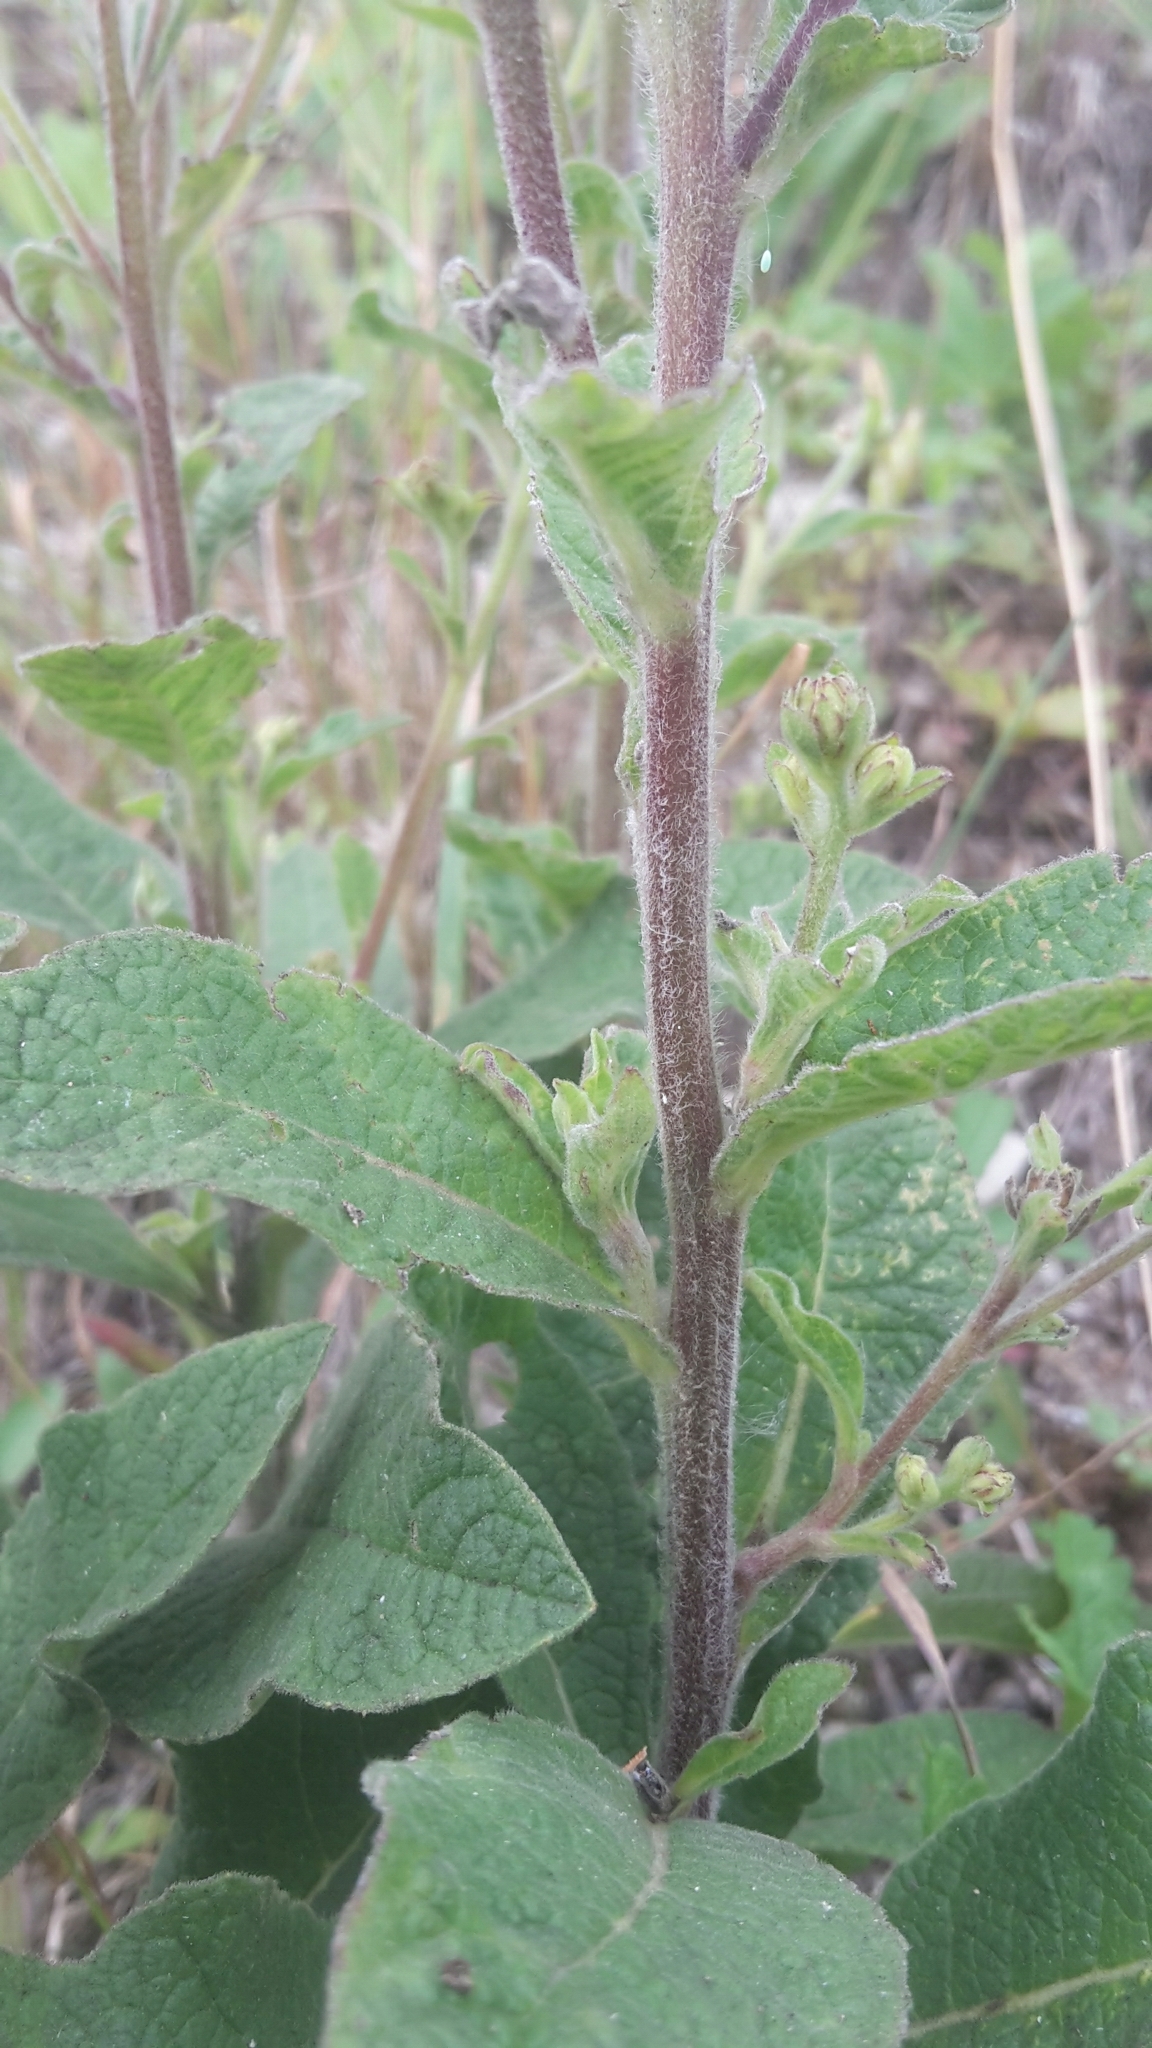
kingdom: Plantae
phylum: Tracheophyta
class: Magnoliopsida
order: Asterales
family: Asteraceae
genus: Pentanema
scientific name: Pentanema squarrosum
